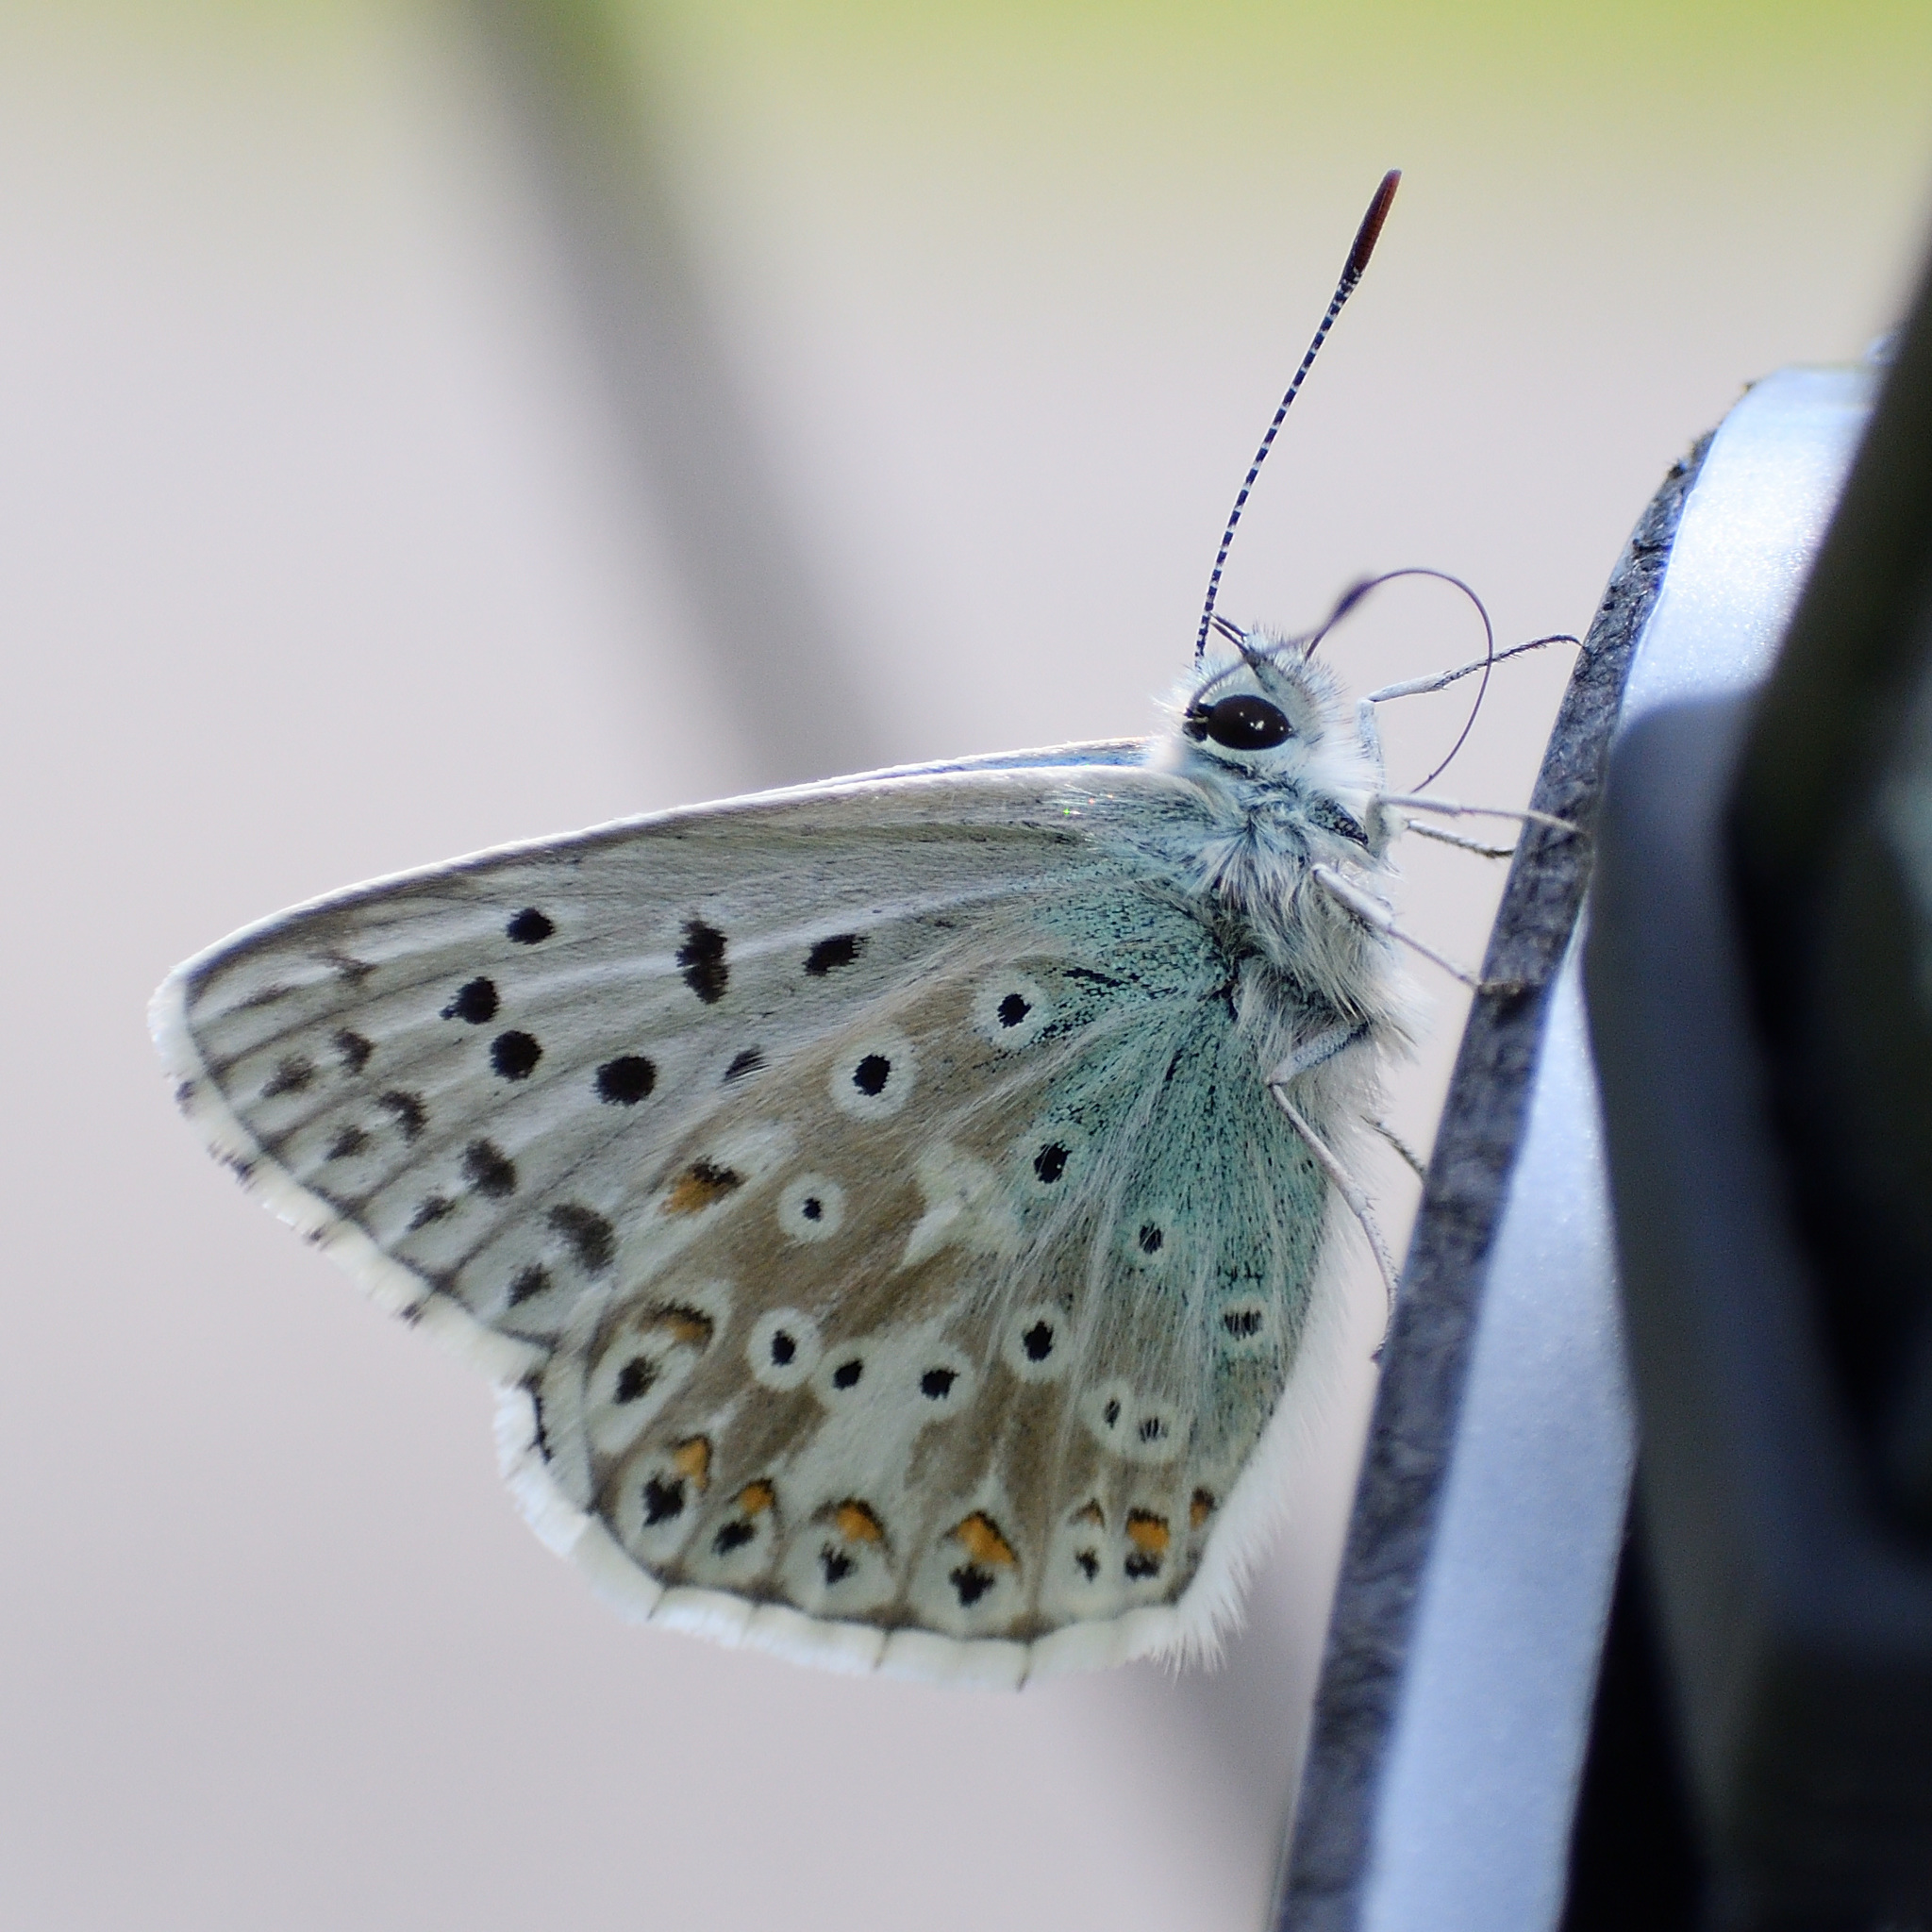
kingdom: Animalia
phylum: Arthropoda
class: Insecta
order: Lepidoptera
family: Lycaenidae
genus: Lysandra
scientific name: Lysandra coridon
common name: Chalkhill blue
